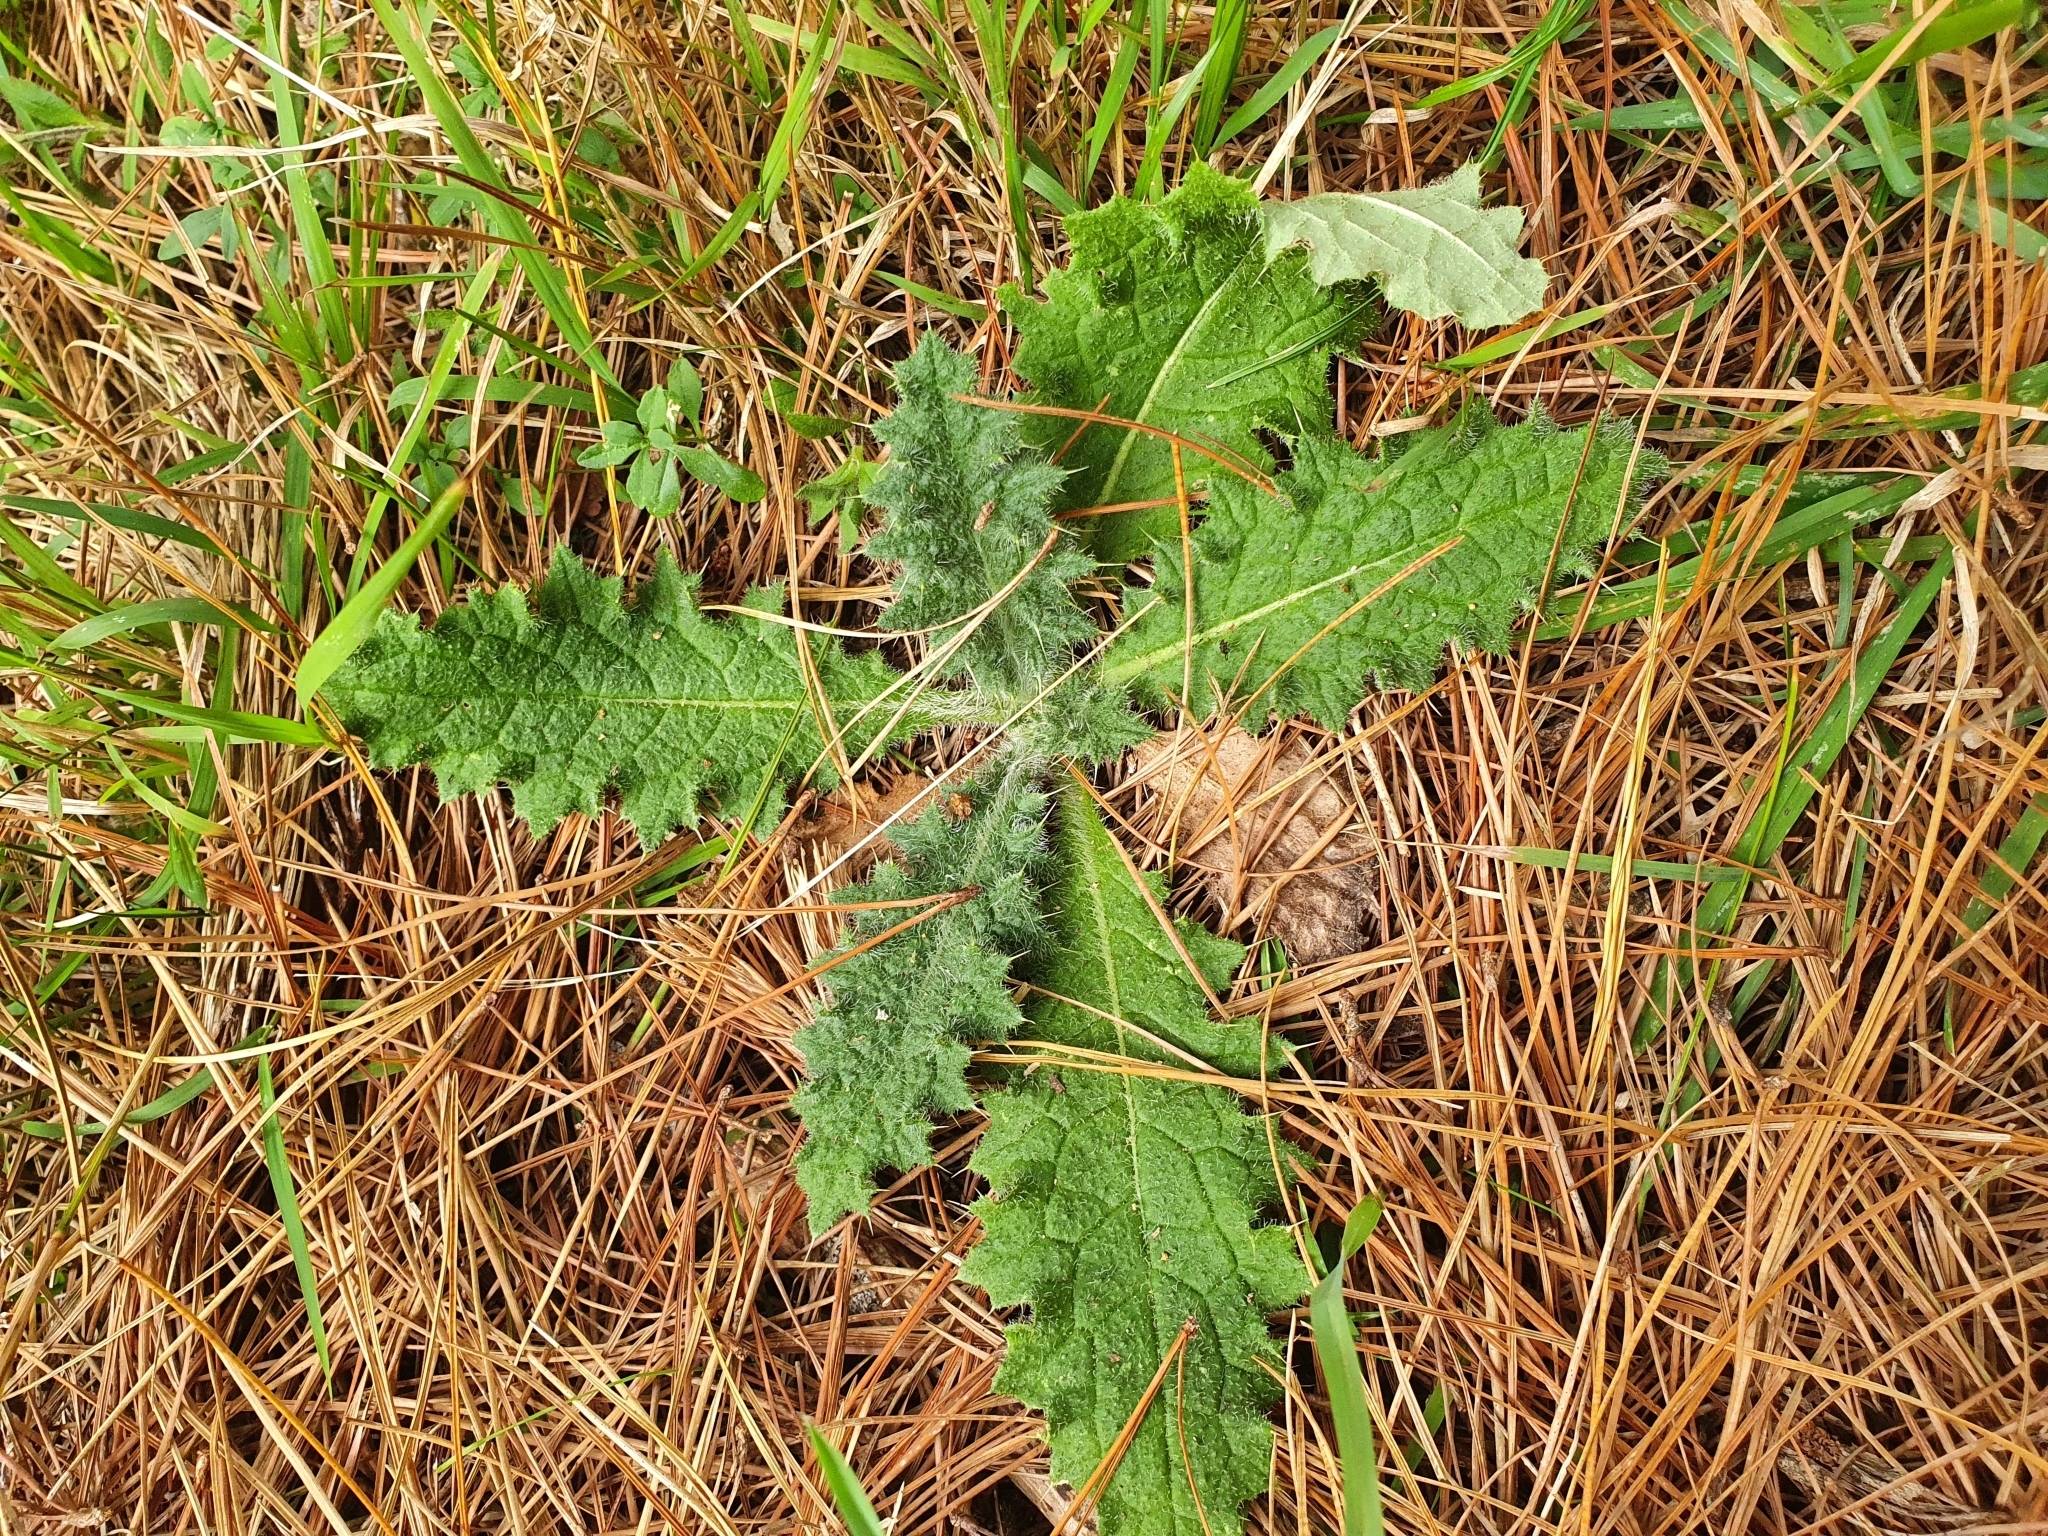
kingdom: Plantae
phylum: Tracheophyta
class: Magnoliopsida
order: Asterales
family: Asteraceae
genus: Cirsium
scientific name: Cirsium vulgare
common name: Bull thistle
